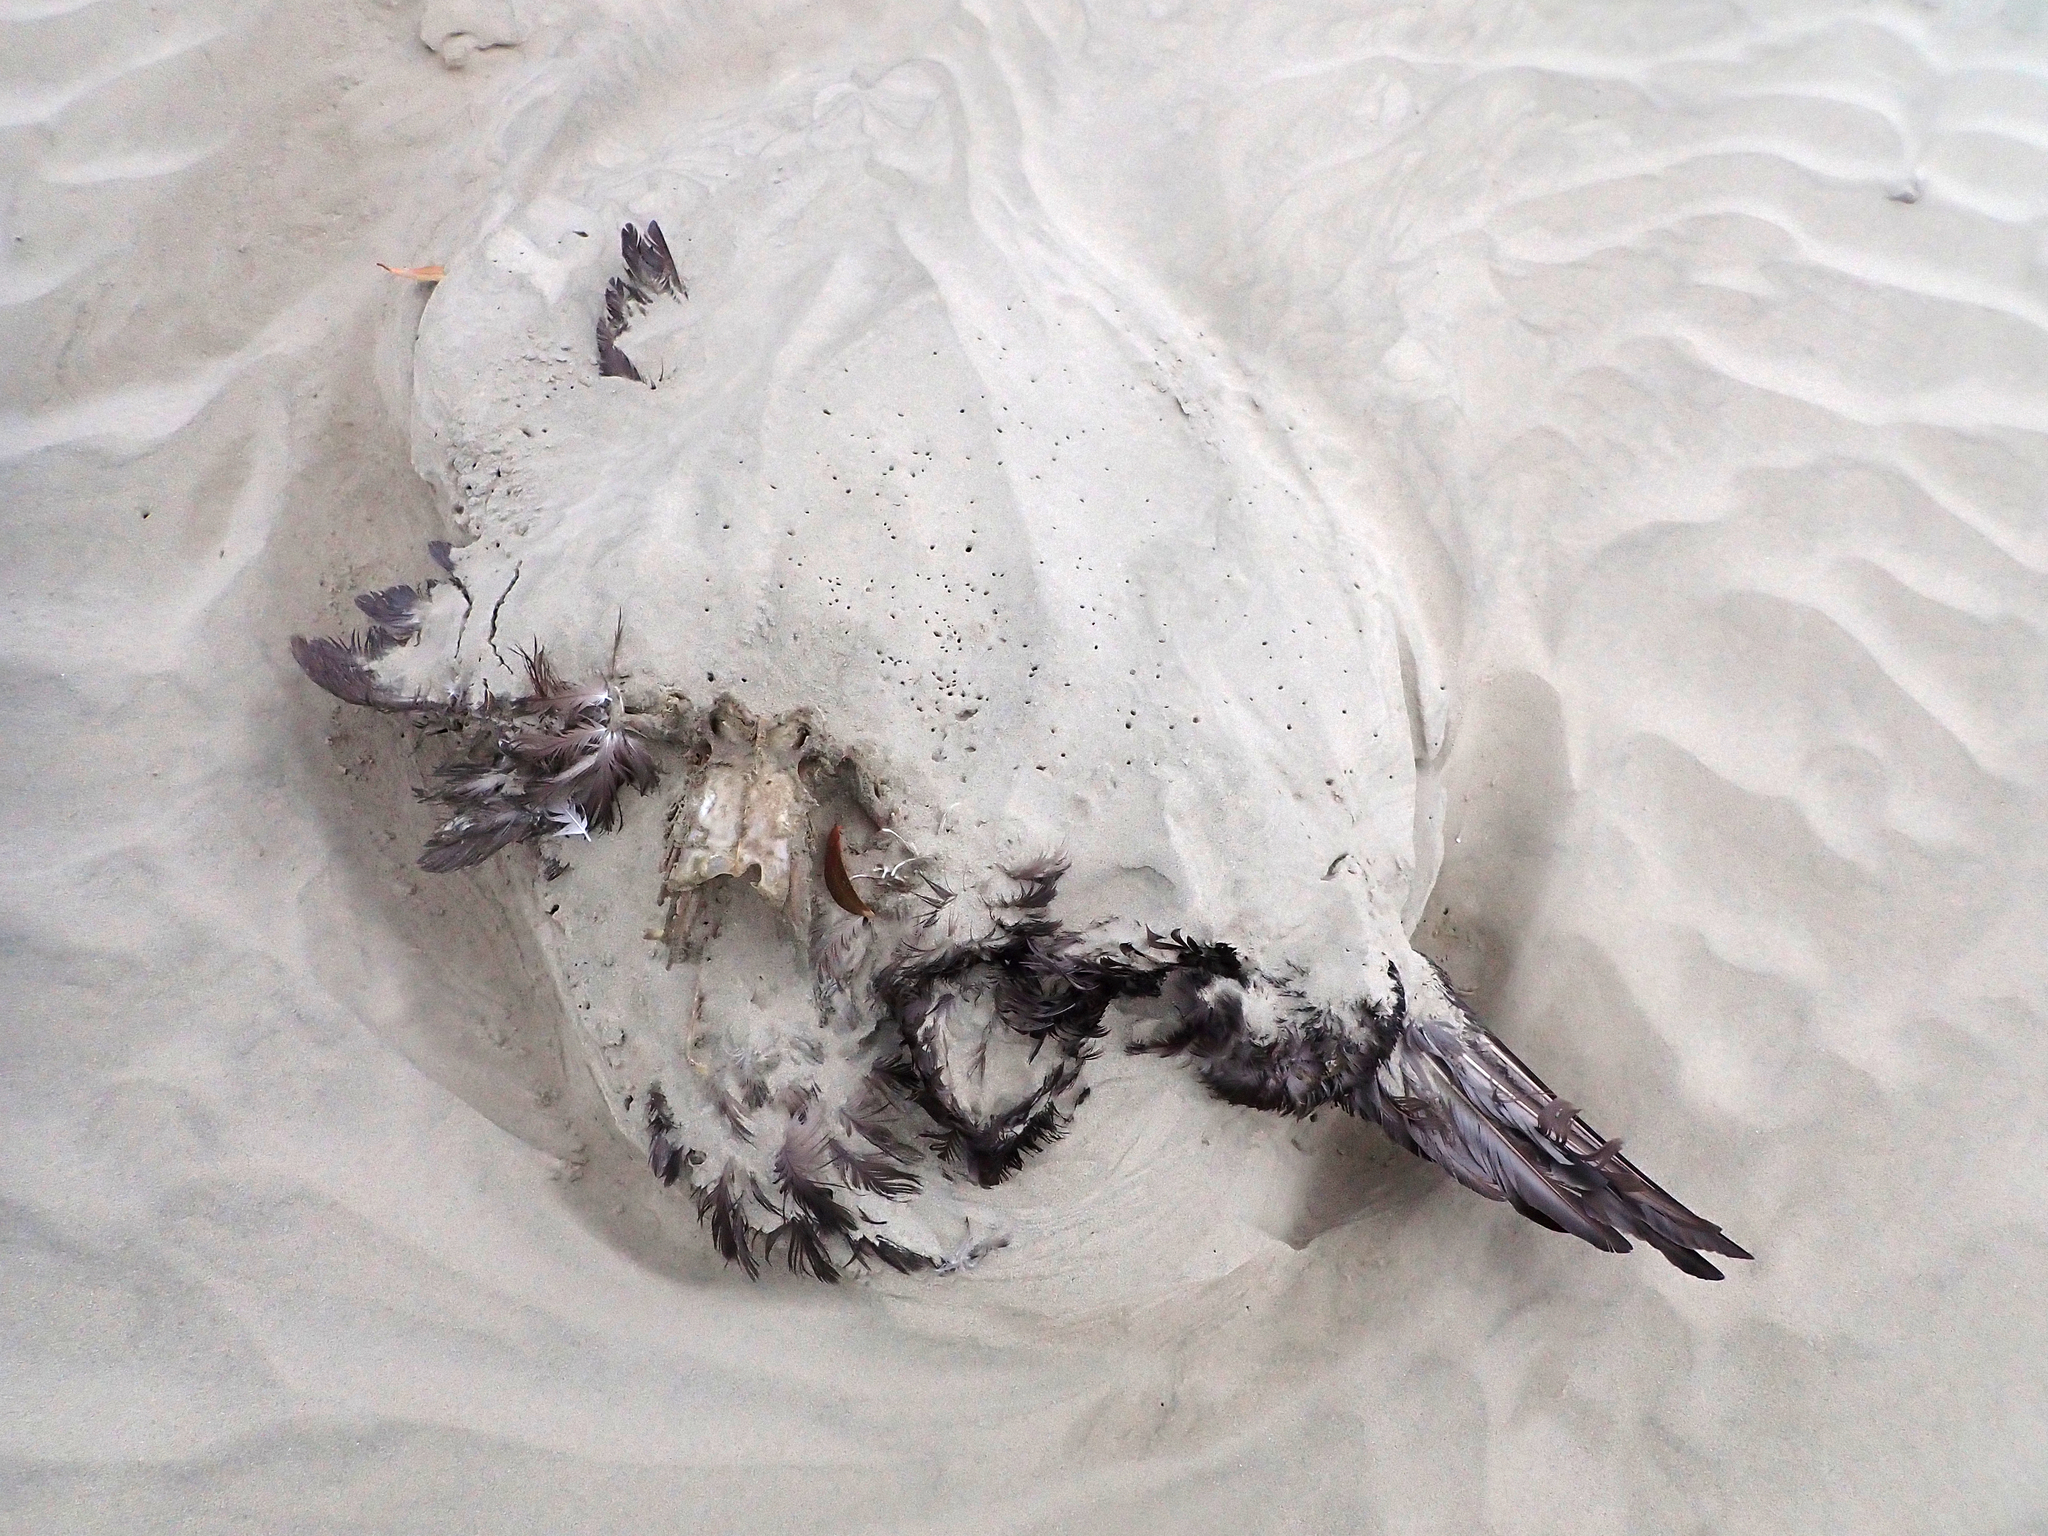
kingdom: Animalia
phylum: Chordata
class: Aves
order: Procellariiformes
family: Procellariidae
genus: Procellaria
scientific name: Procellaria aequinoctialis
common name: White-chinned petrel
